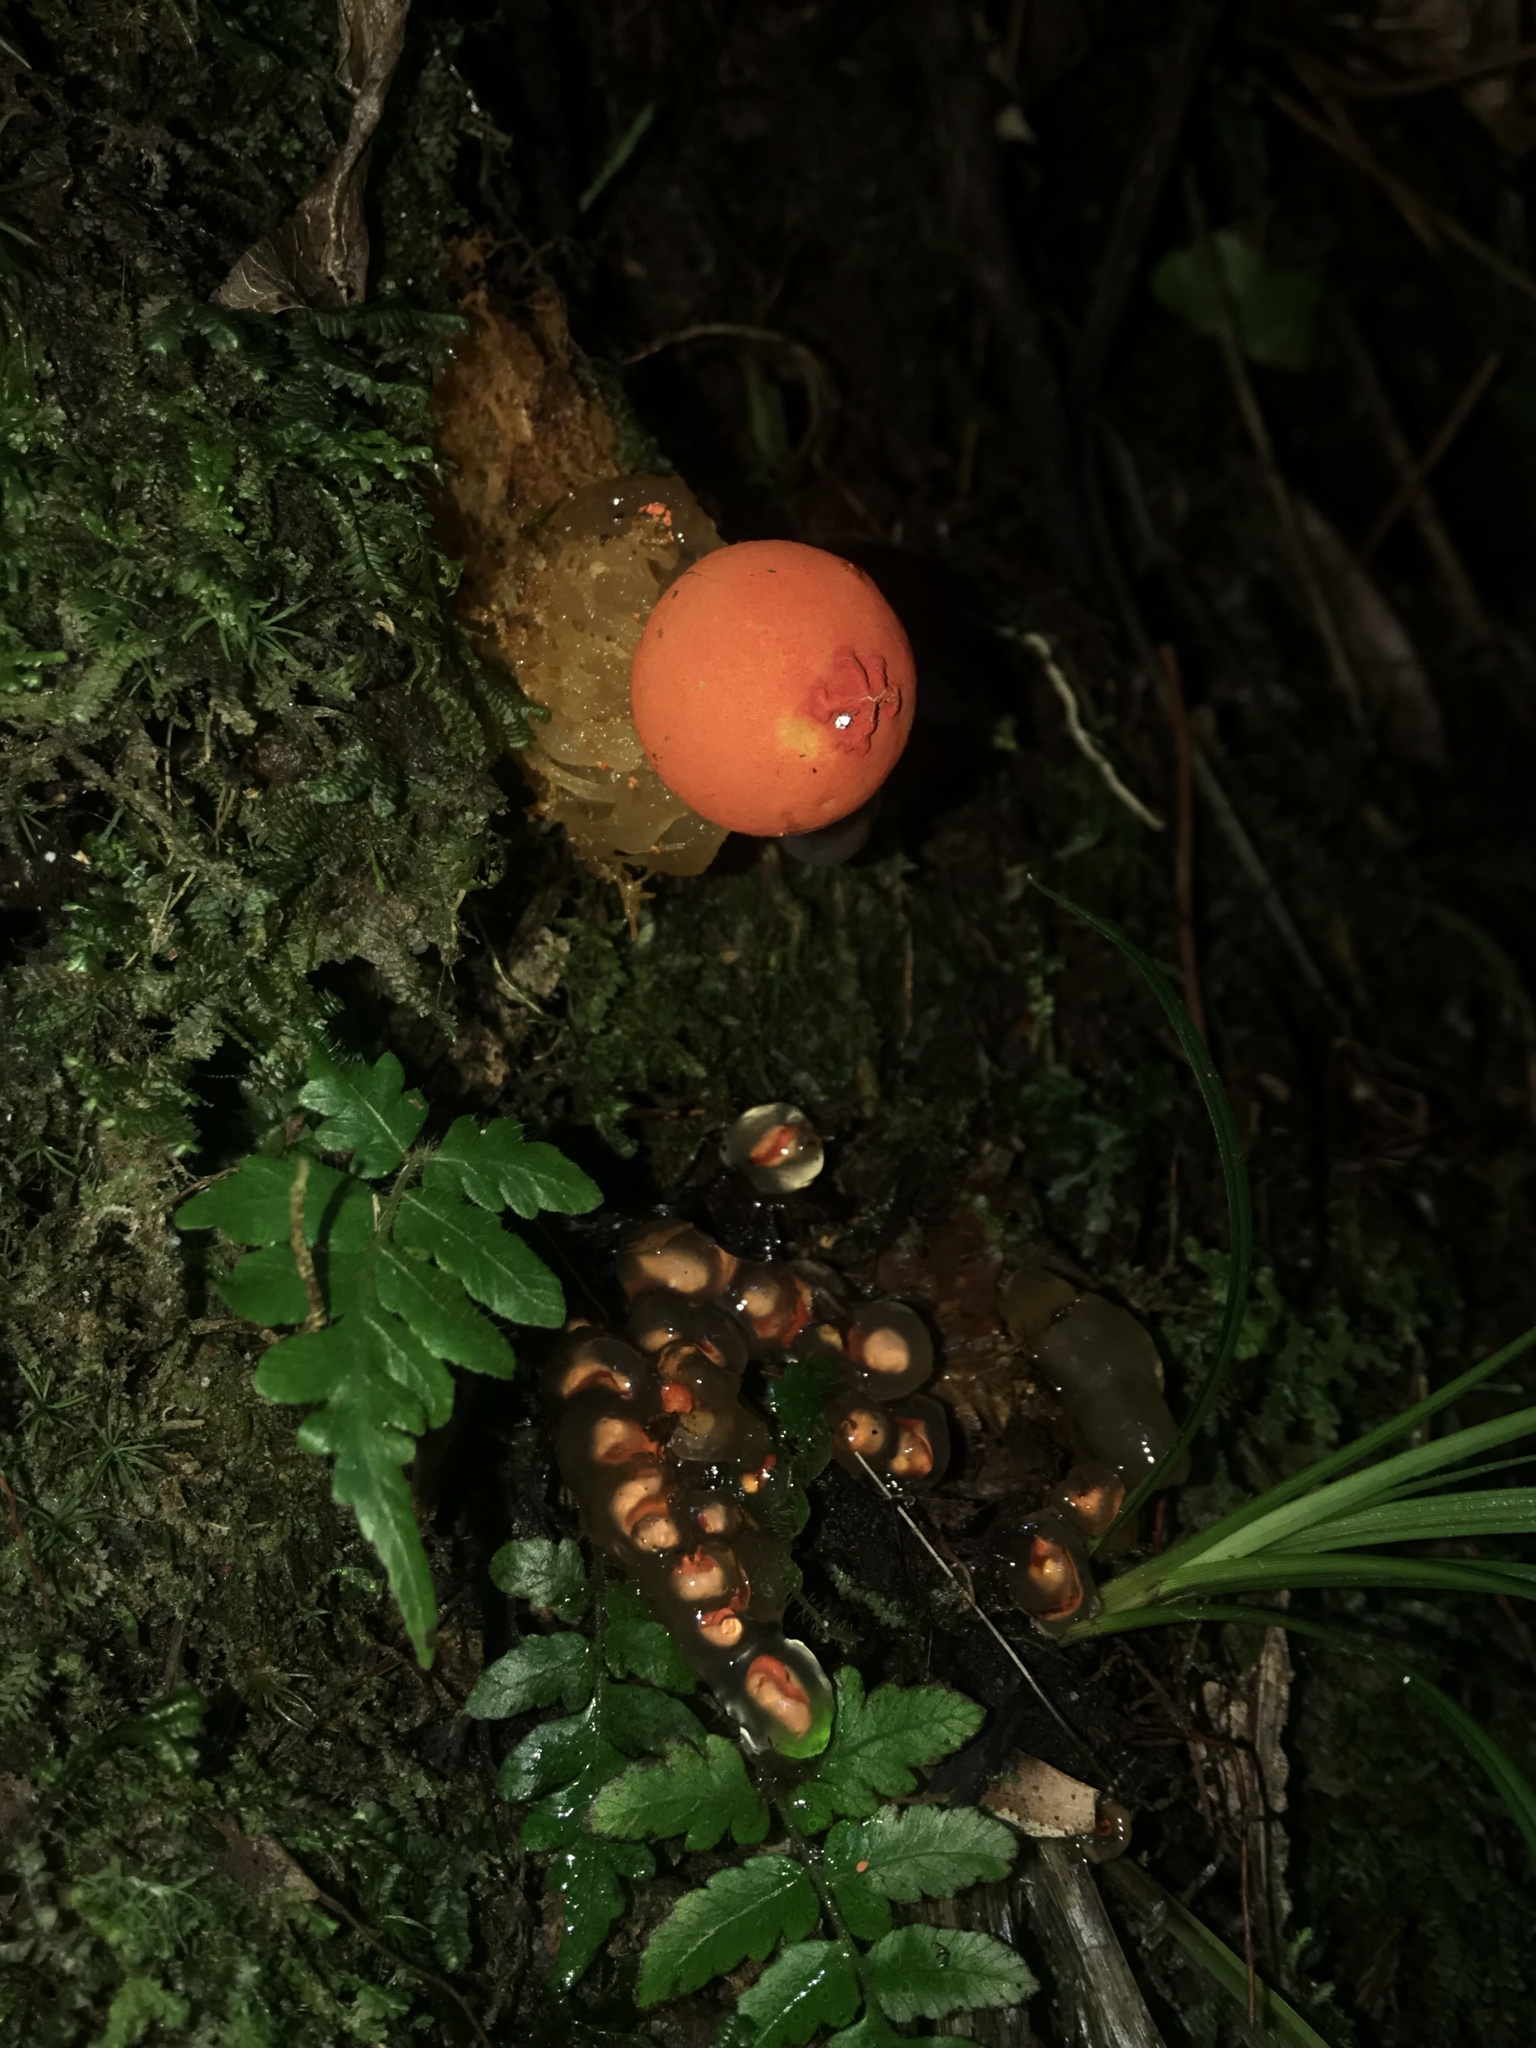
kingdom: Fungi
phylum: Basidiomycota
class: Agaricomycetes
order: Boletales
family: Calostomataceae
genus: Calostoma
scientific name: Calostoma cinnabarinum
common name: Stalked puffball-in-aspic
